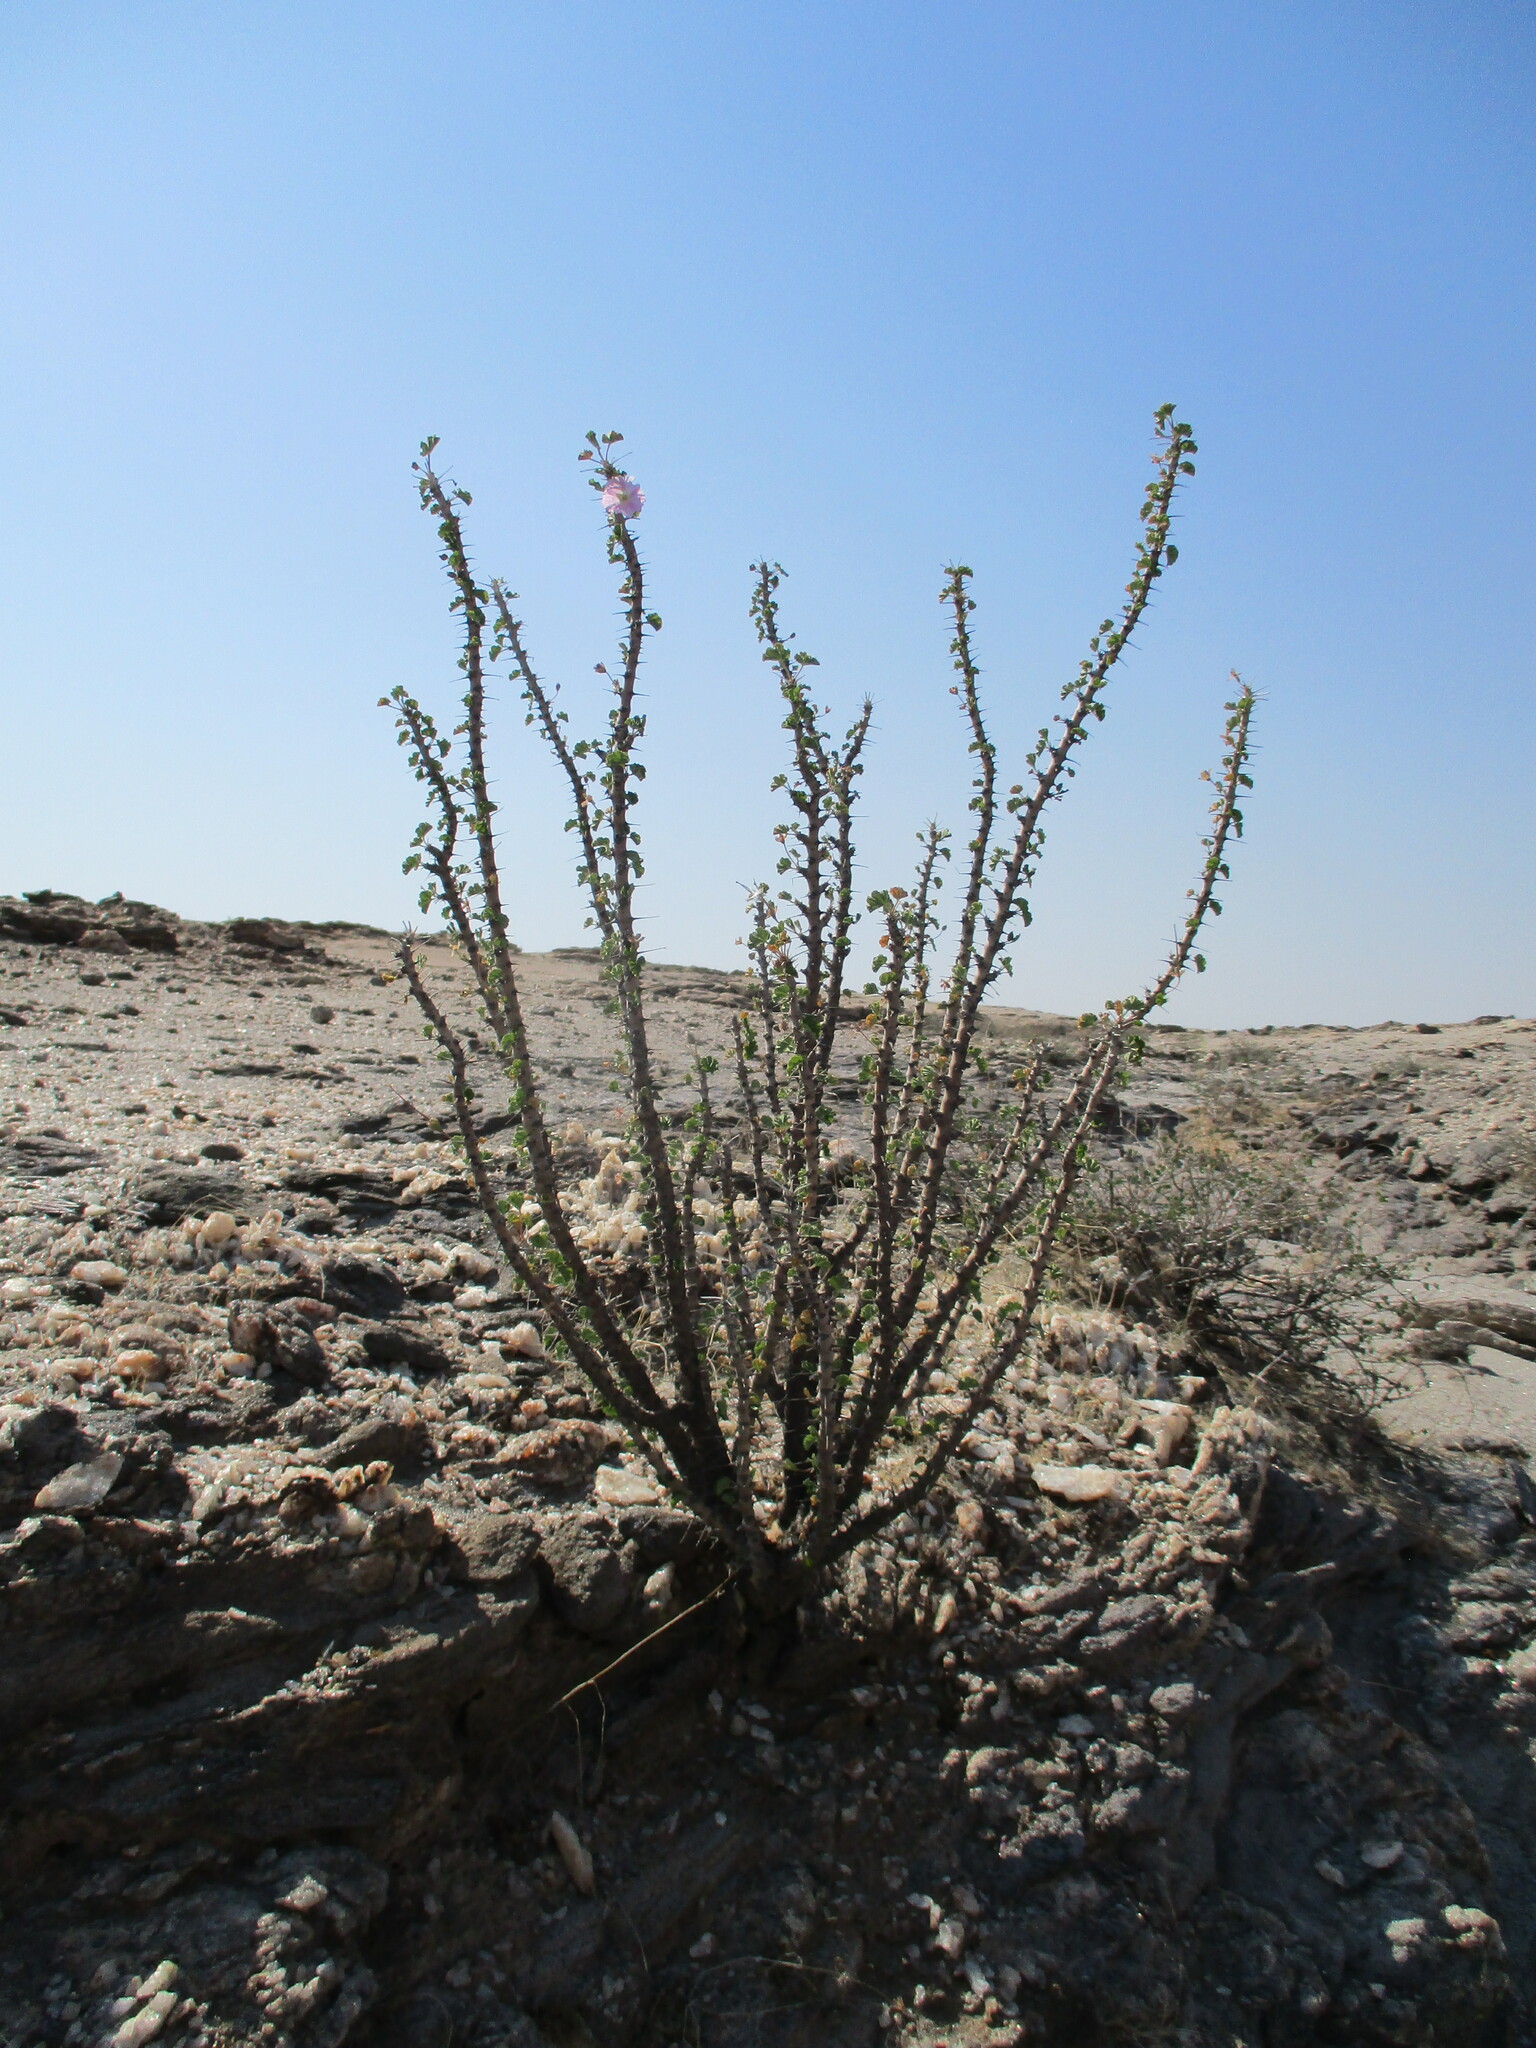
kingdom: Plantae
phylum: Tracheophyta
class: Magnoliopsida
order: Geraniales
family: Geraniaceae
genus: Monsonia
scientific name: Monsonia marlothii
